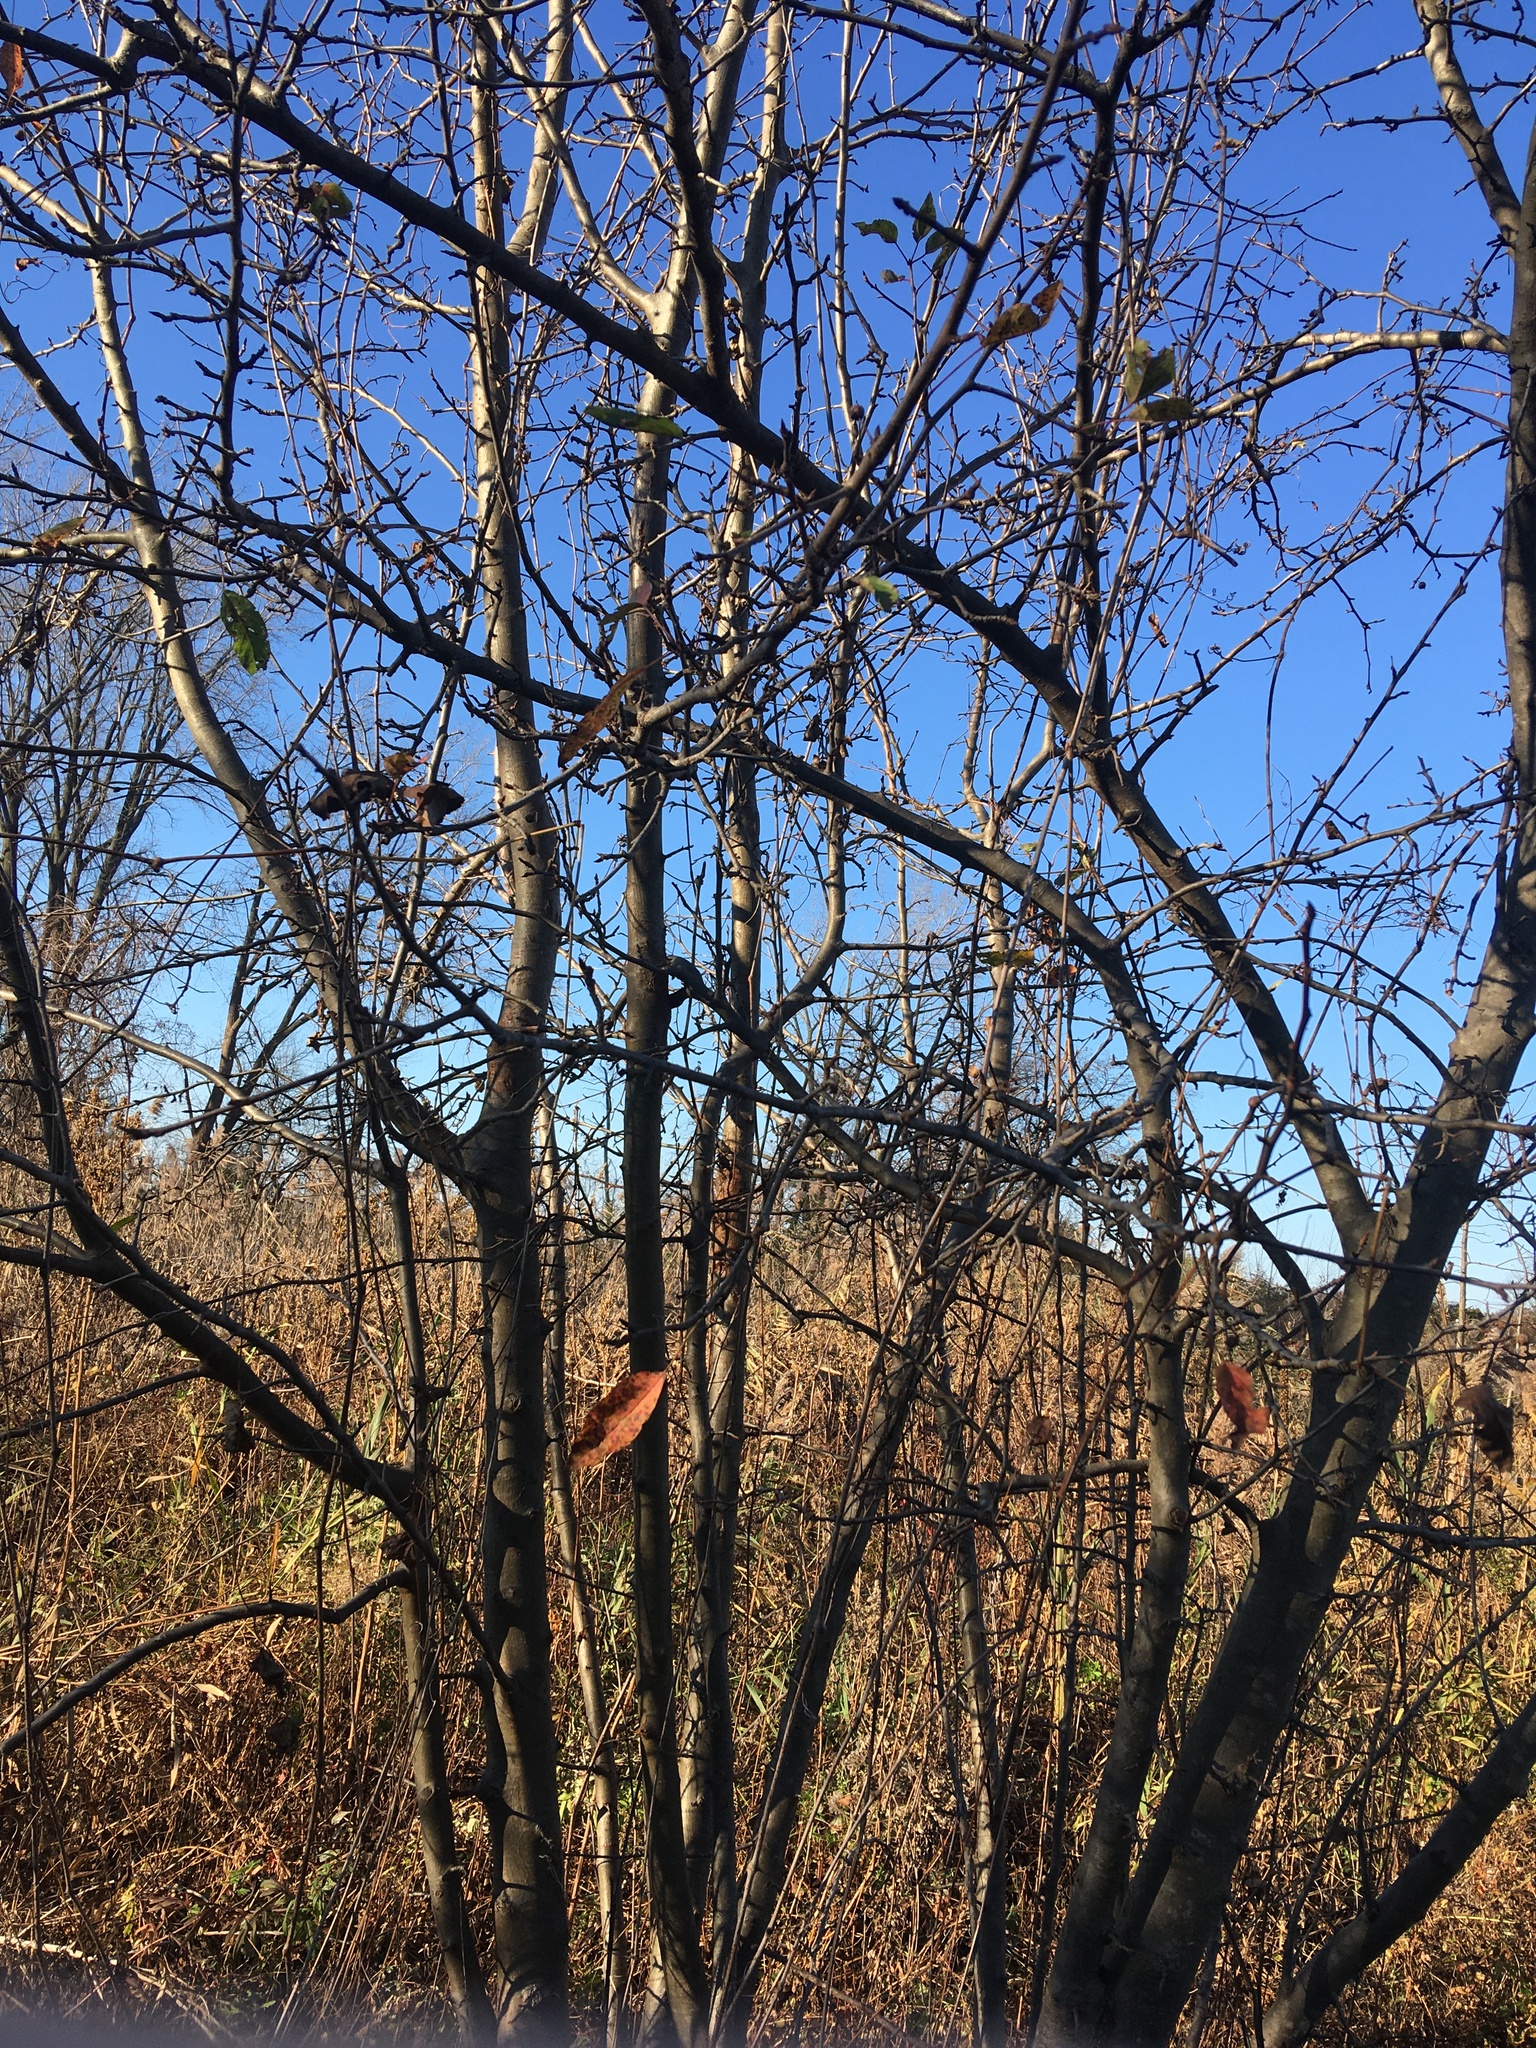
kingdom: Plantae
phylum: Tracheophyta
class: Magnoliopsida
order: Rosales
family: Rosaceae
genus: Malus
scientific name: Malus hupehensis
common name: Chinese crab apple
